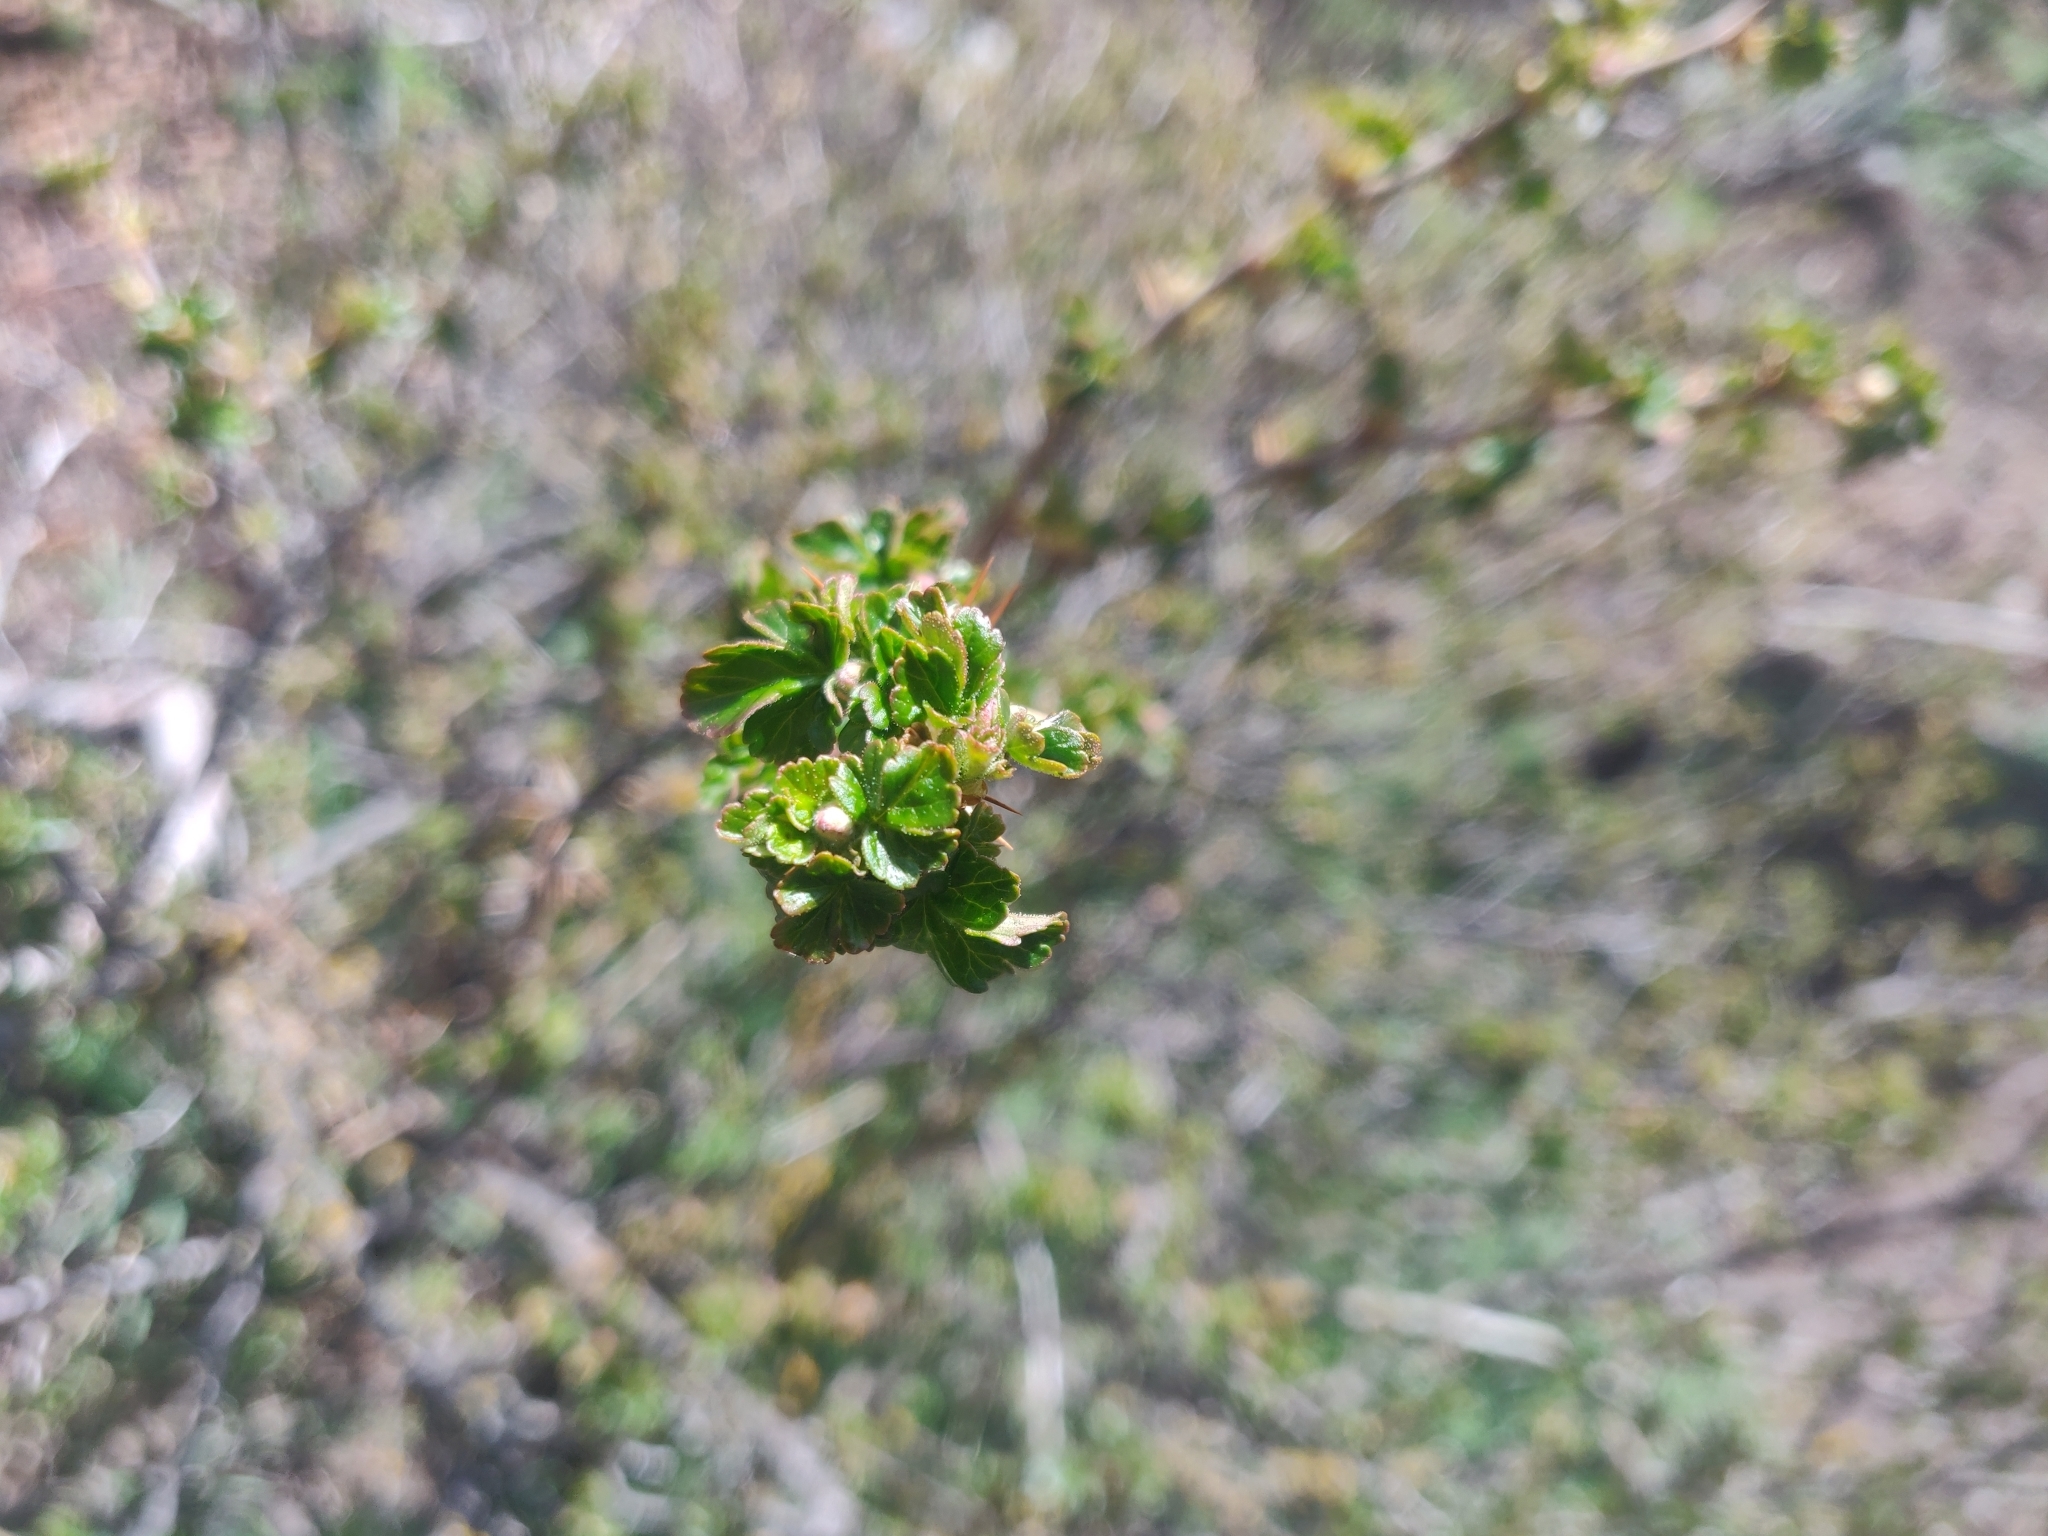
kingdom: Plantae
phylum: Tracheophyta
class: Magnoliopsida
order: Saxifragales
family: Grossulariaceae
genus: Ribes
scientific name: Ribes velutinum
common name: Desert gooseberry
